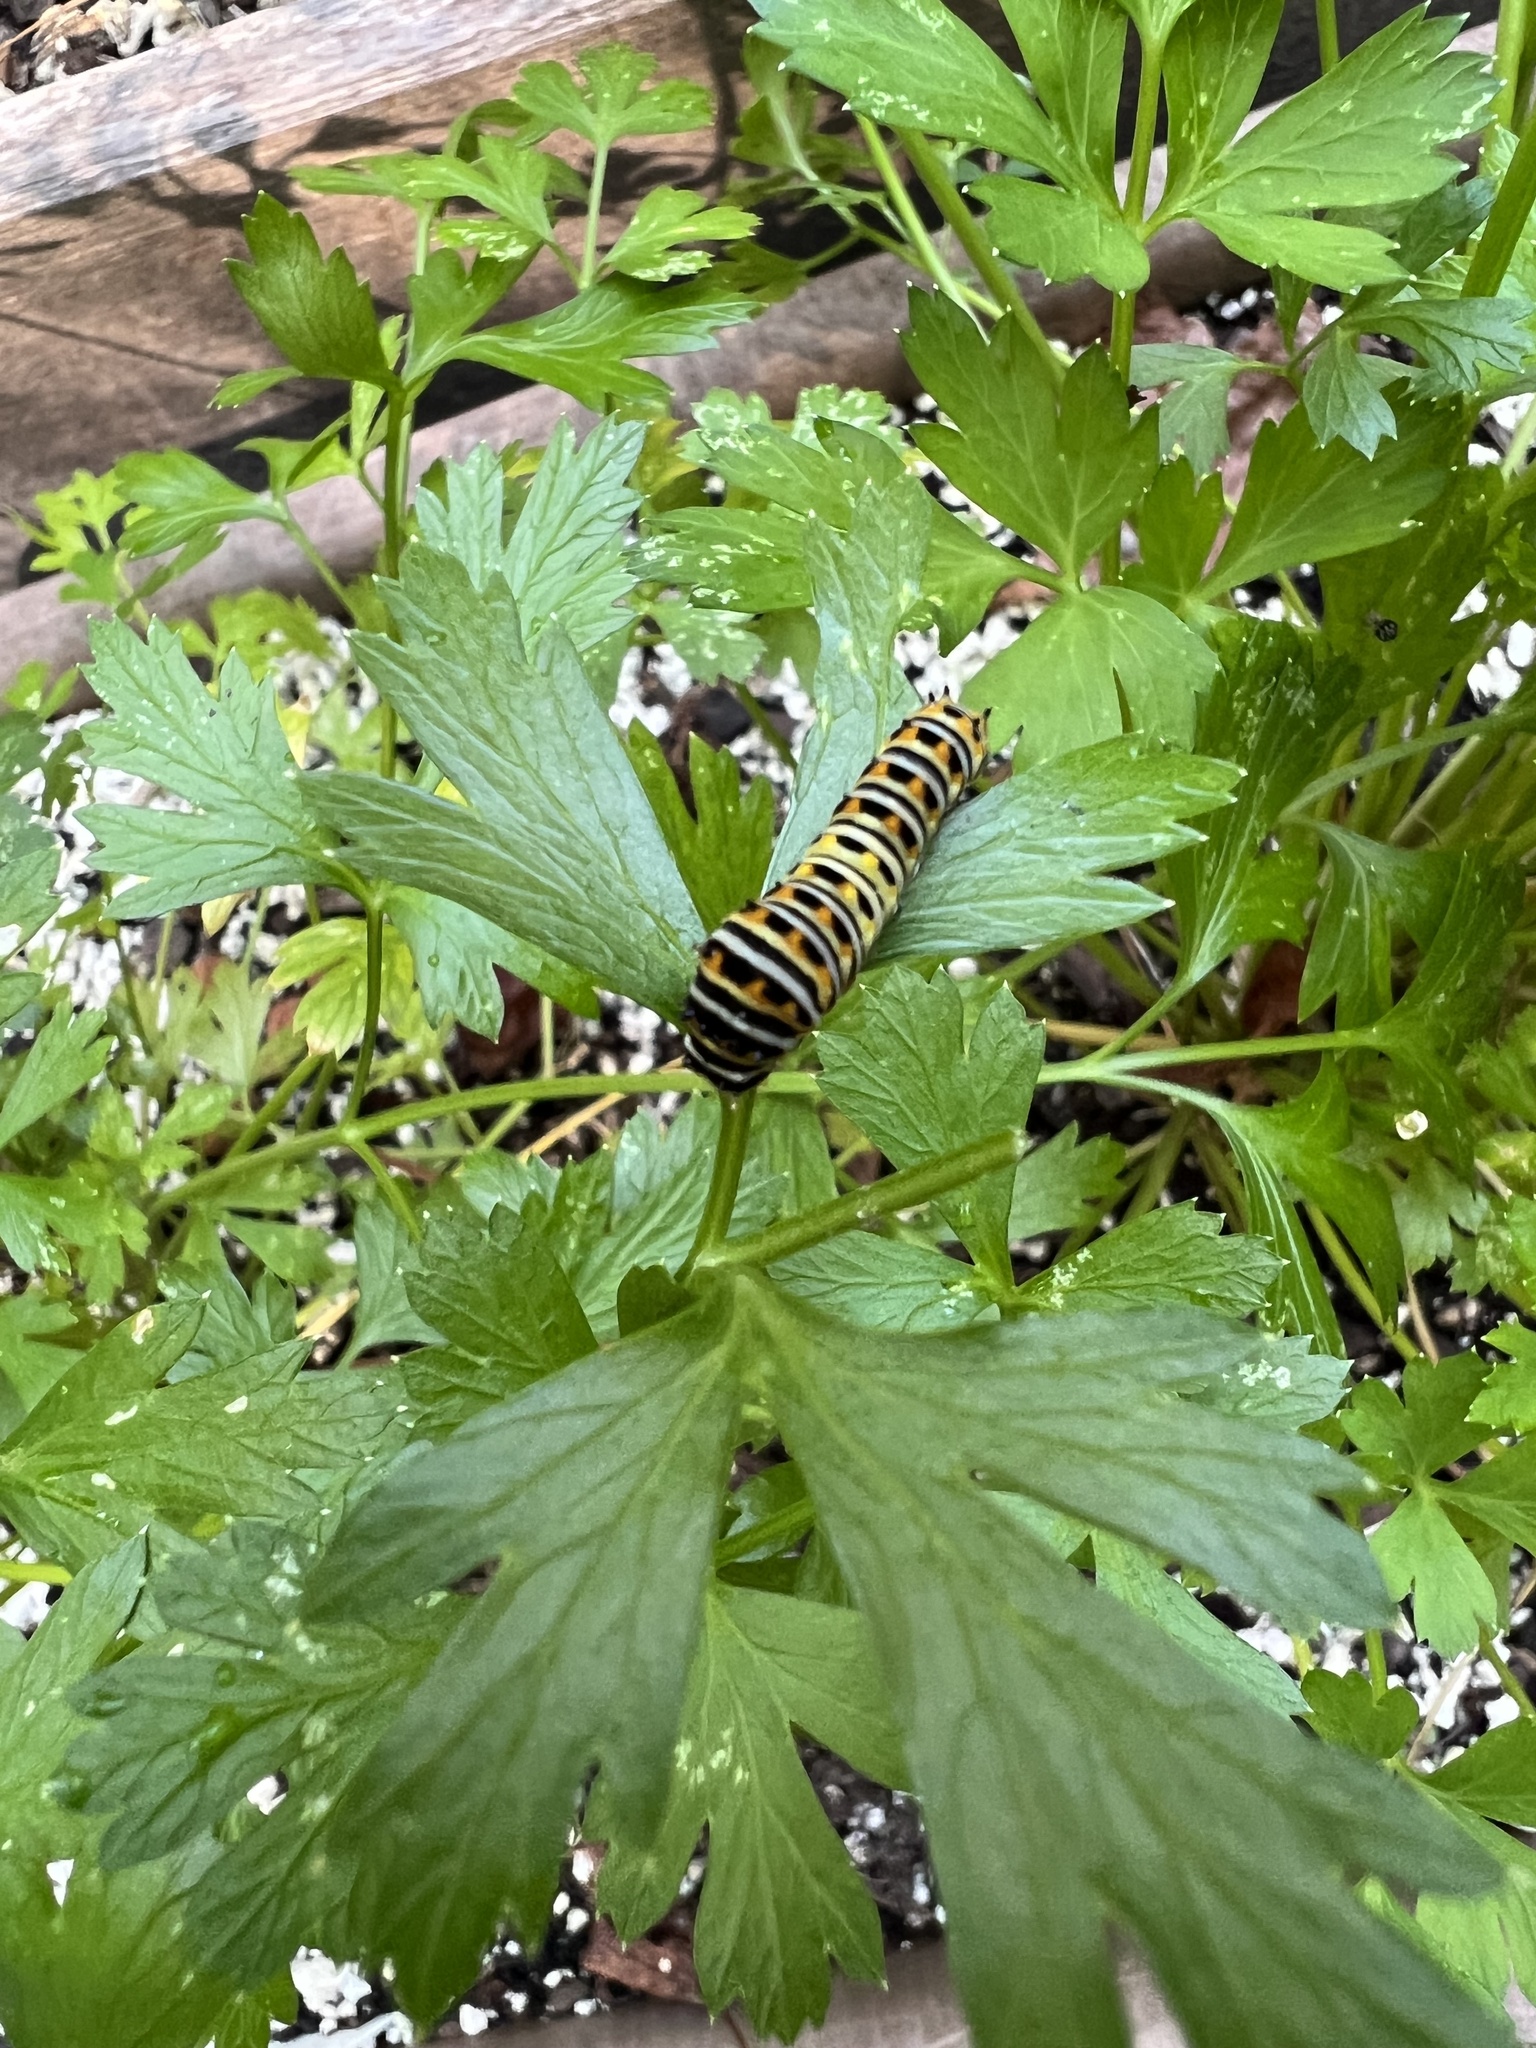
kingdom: Animalia
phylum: Arthropoda
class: Insecta
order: Lepidoptera
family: Papilionidae
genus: Papilio
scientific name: Papilio polyxenes
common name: Black swallowtail
